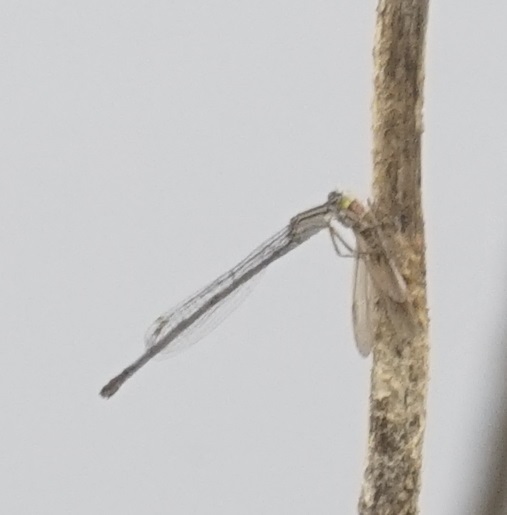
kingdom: Animalia
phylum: Arthropoda
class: Insecta
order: Odonata
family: Coenagrionidae
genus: Ischnura
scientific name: Ischnura heterosticta
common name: Common bluetail
